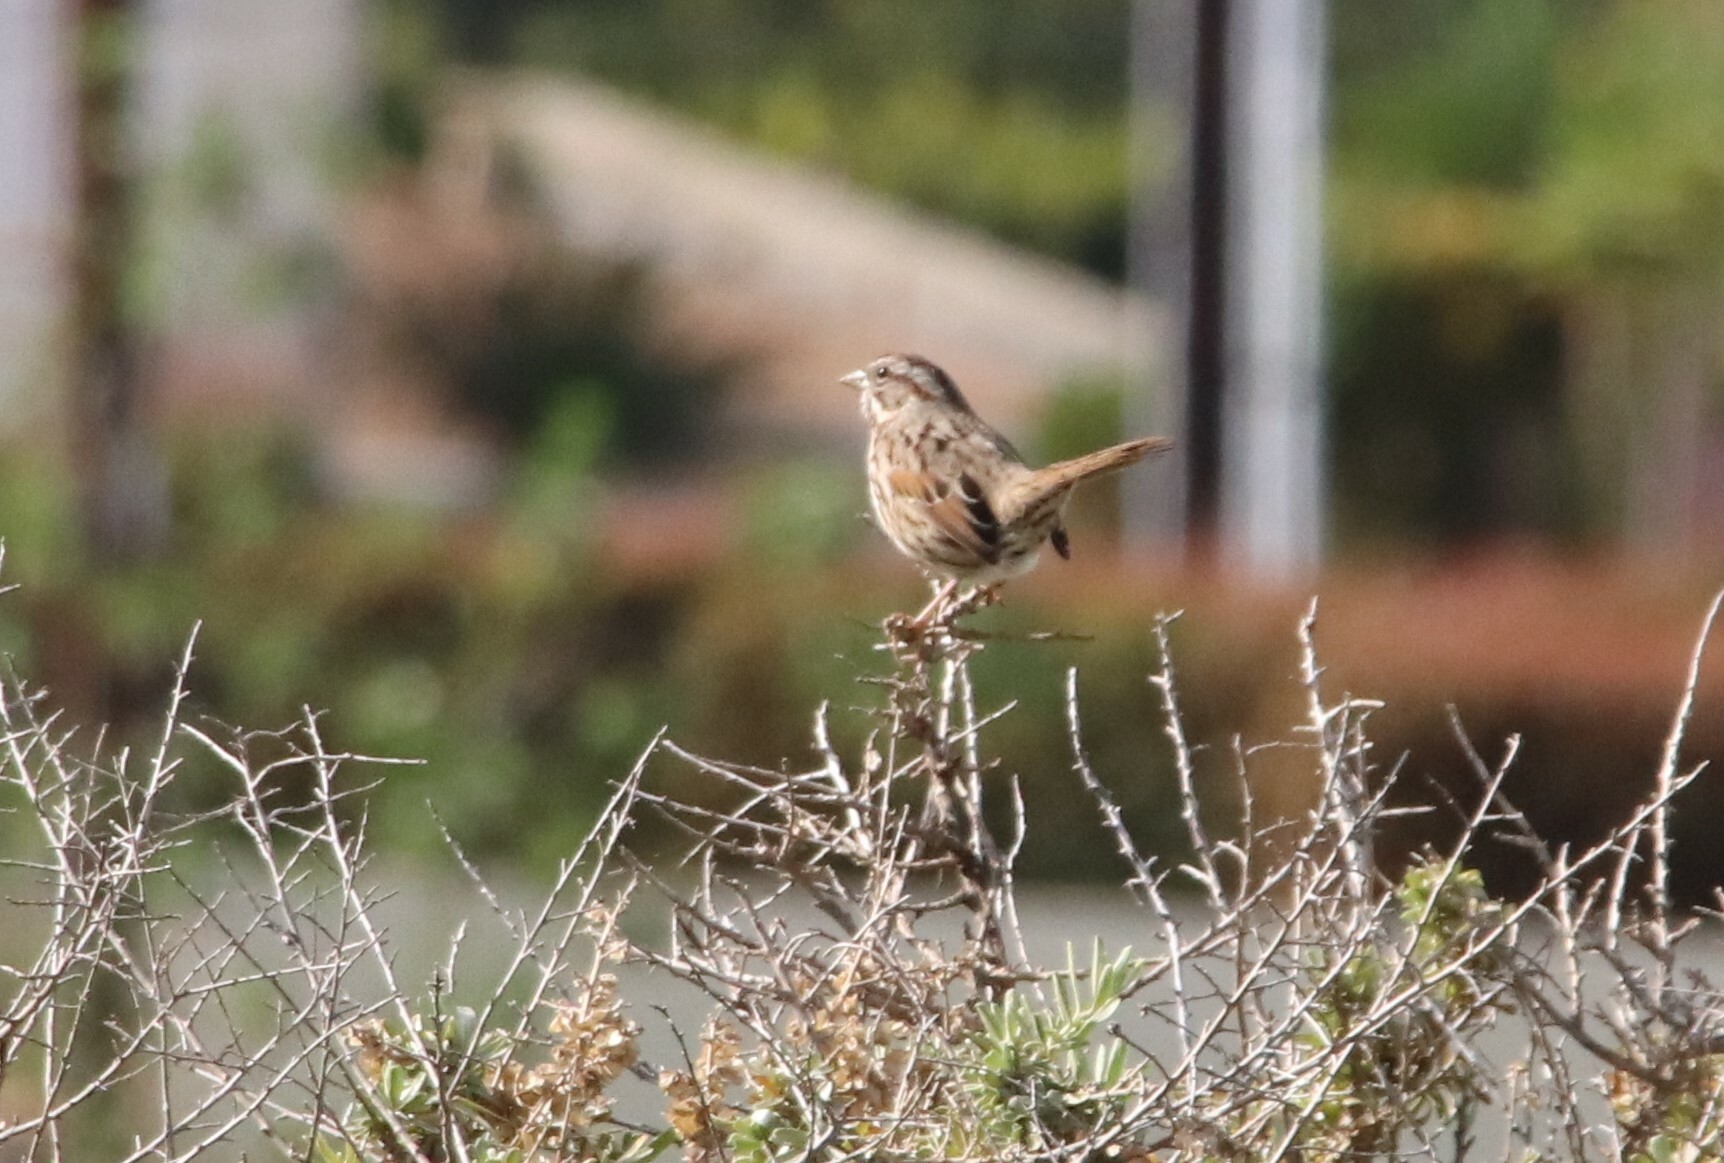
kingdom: Animalia
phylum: Chordata
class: Aves
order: Passeriformes
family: Passerellidae
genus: Melospiza
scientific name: Melospiza melodia
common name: Song sparrow
